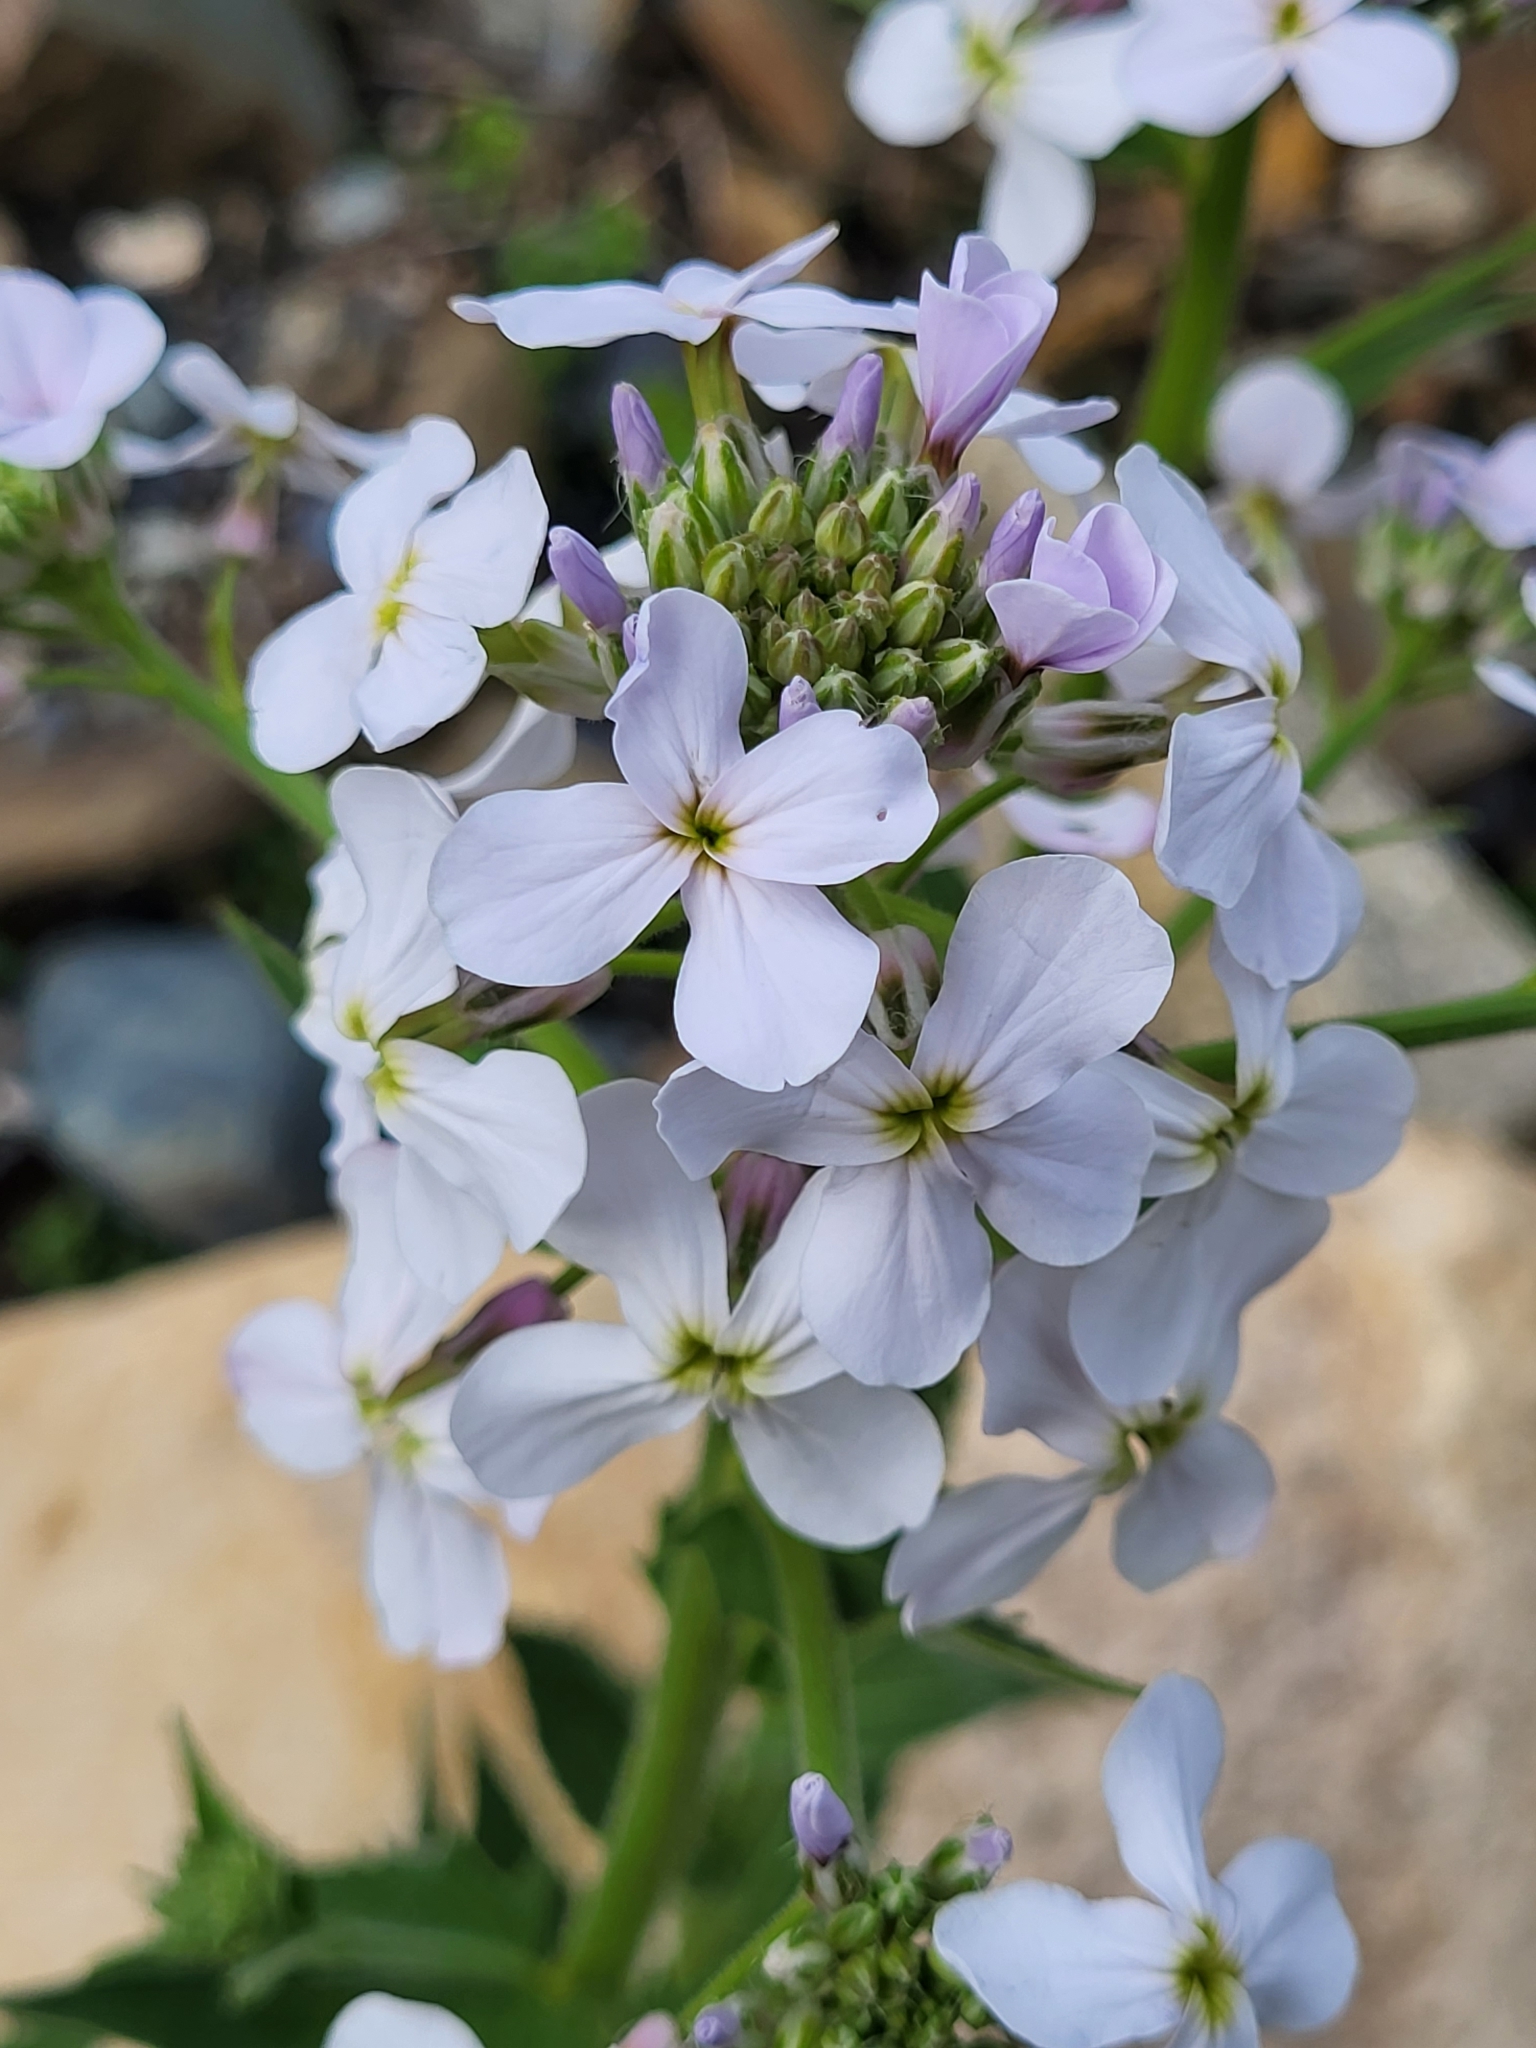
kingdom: Plantae
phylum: Tracheophyta
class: Magnoliopsida
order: Brassicales
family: Brassicaceae
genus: Hesperis
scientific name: Hesperis matronalis
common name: Dame's-violet
